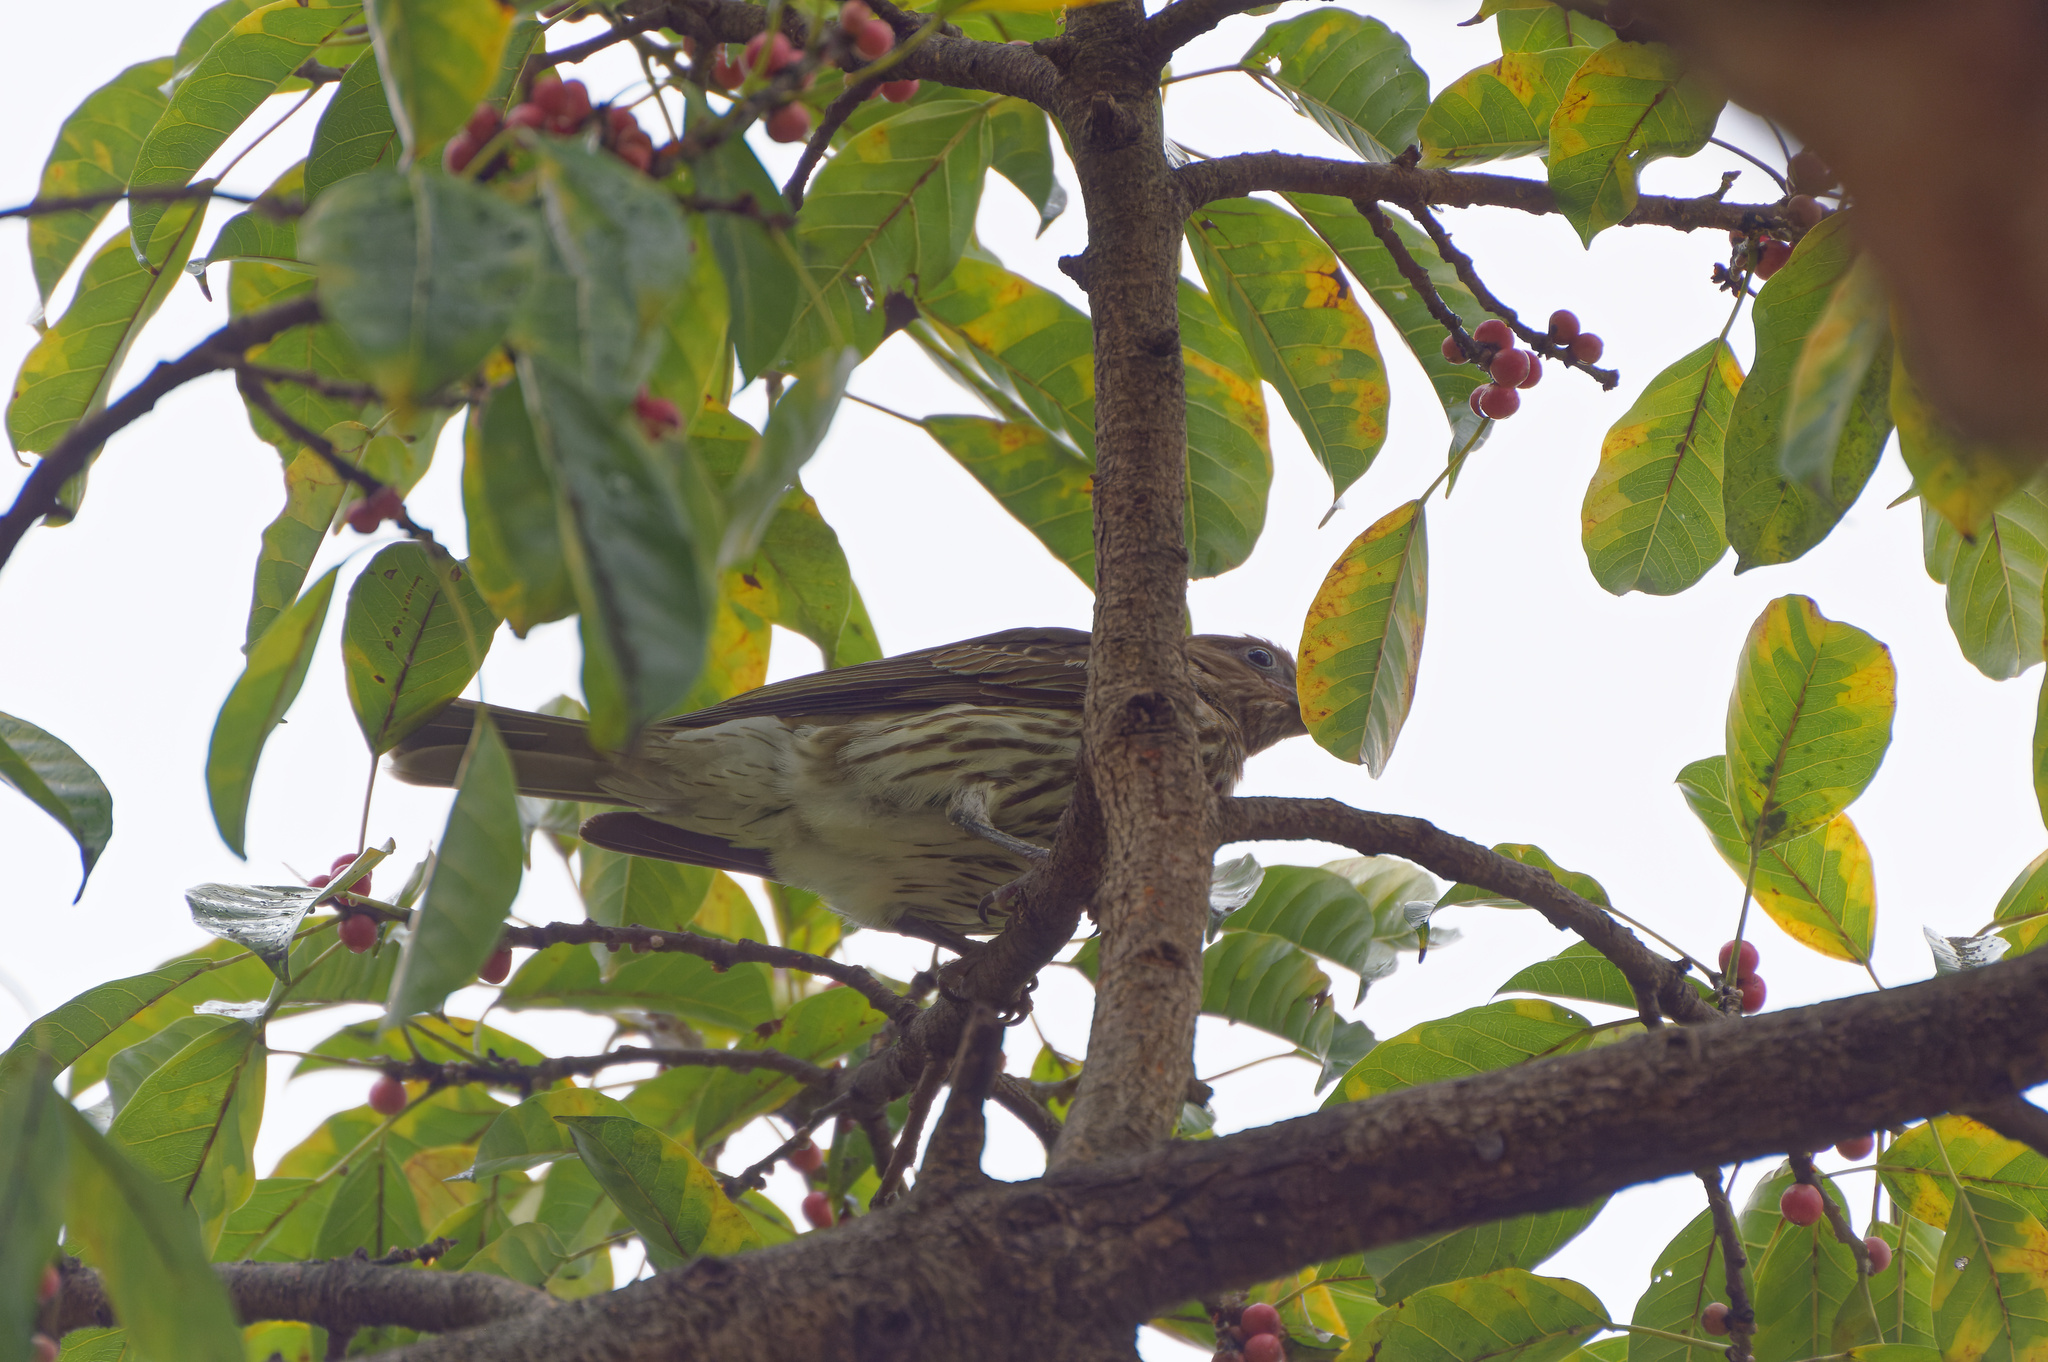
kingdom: Animalia
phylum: Chordata
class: Aves
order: Passeriformes
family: Oriolidae
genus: Sphecotheres
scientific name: Sphecotheres vieilloti
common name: Australasian figbird
